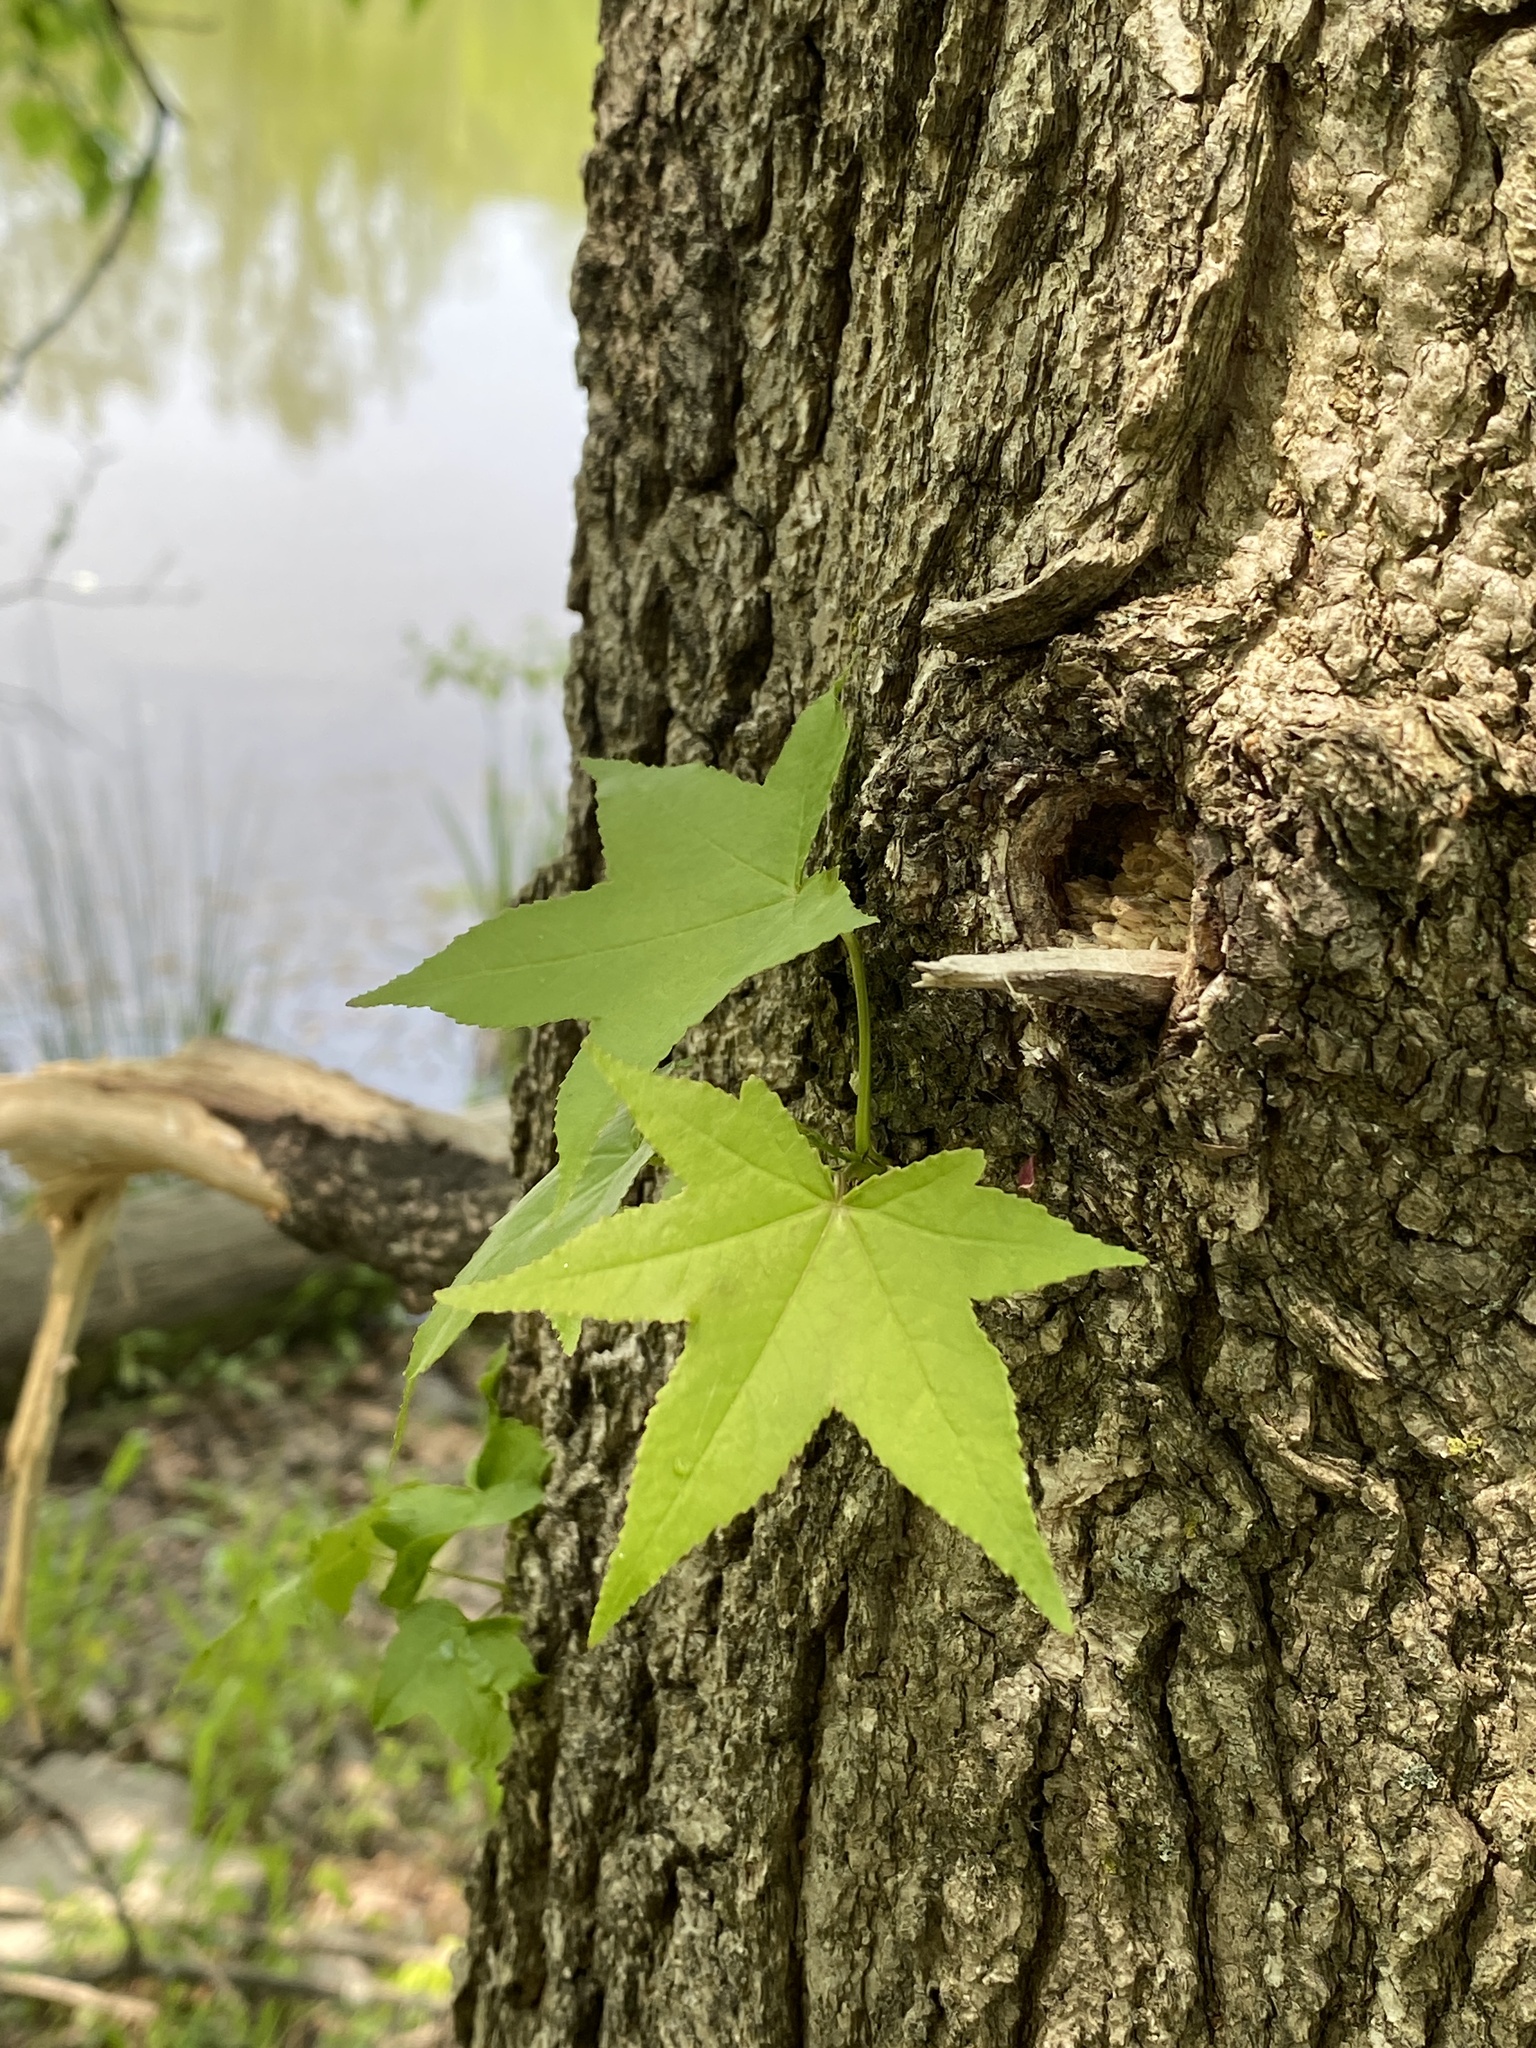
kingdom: Plantae
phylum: Tracheophyta
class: Magnoliopsida
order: Saxifragales
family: Altingiaceae
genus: Liquidambar
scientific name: Liquidambar styraciflua
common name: Sweet gum
